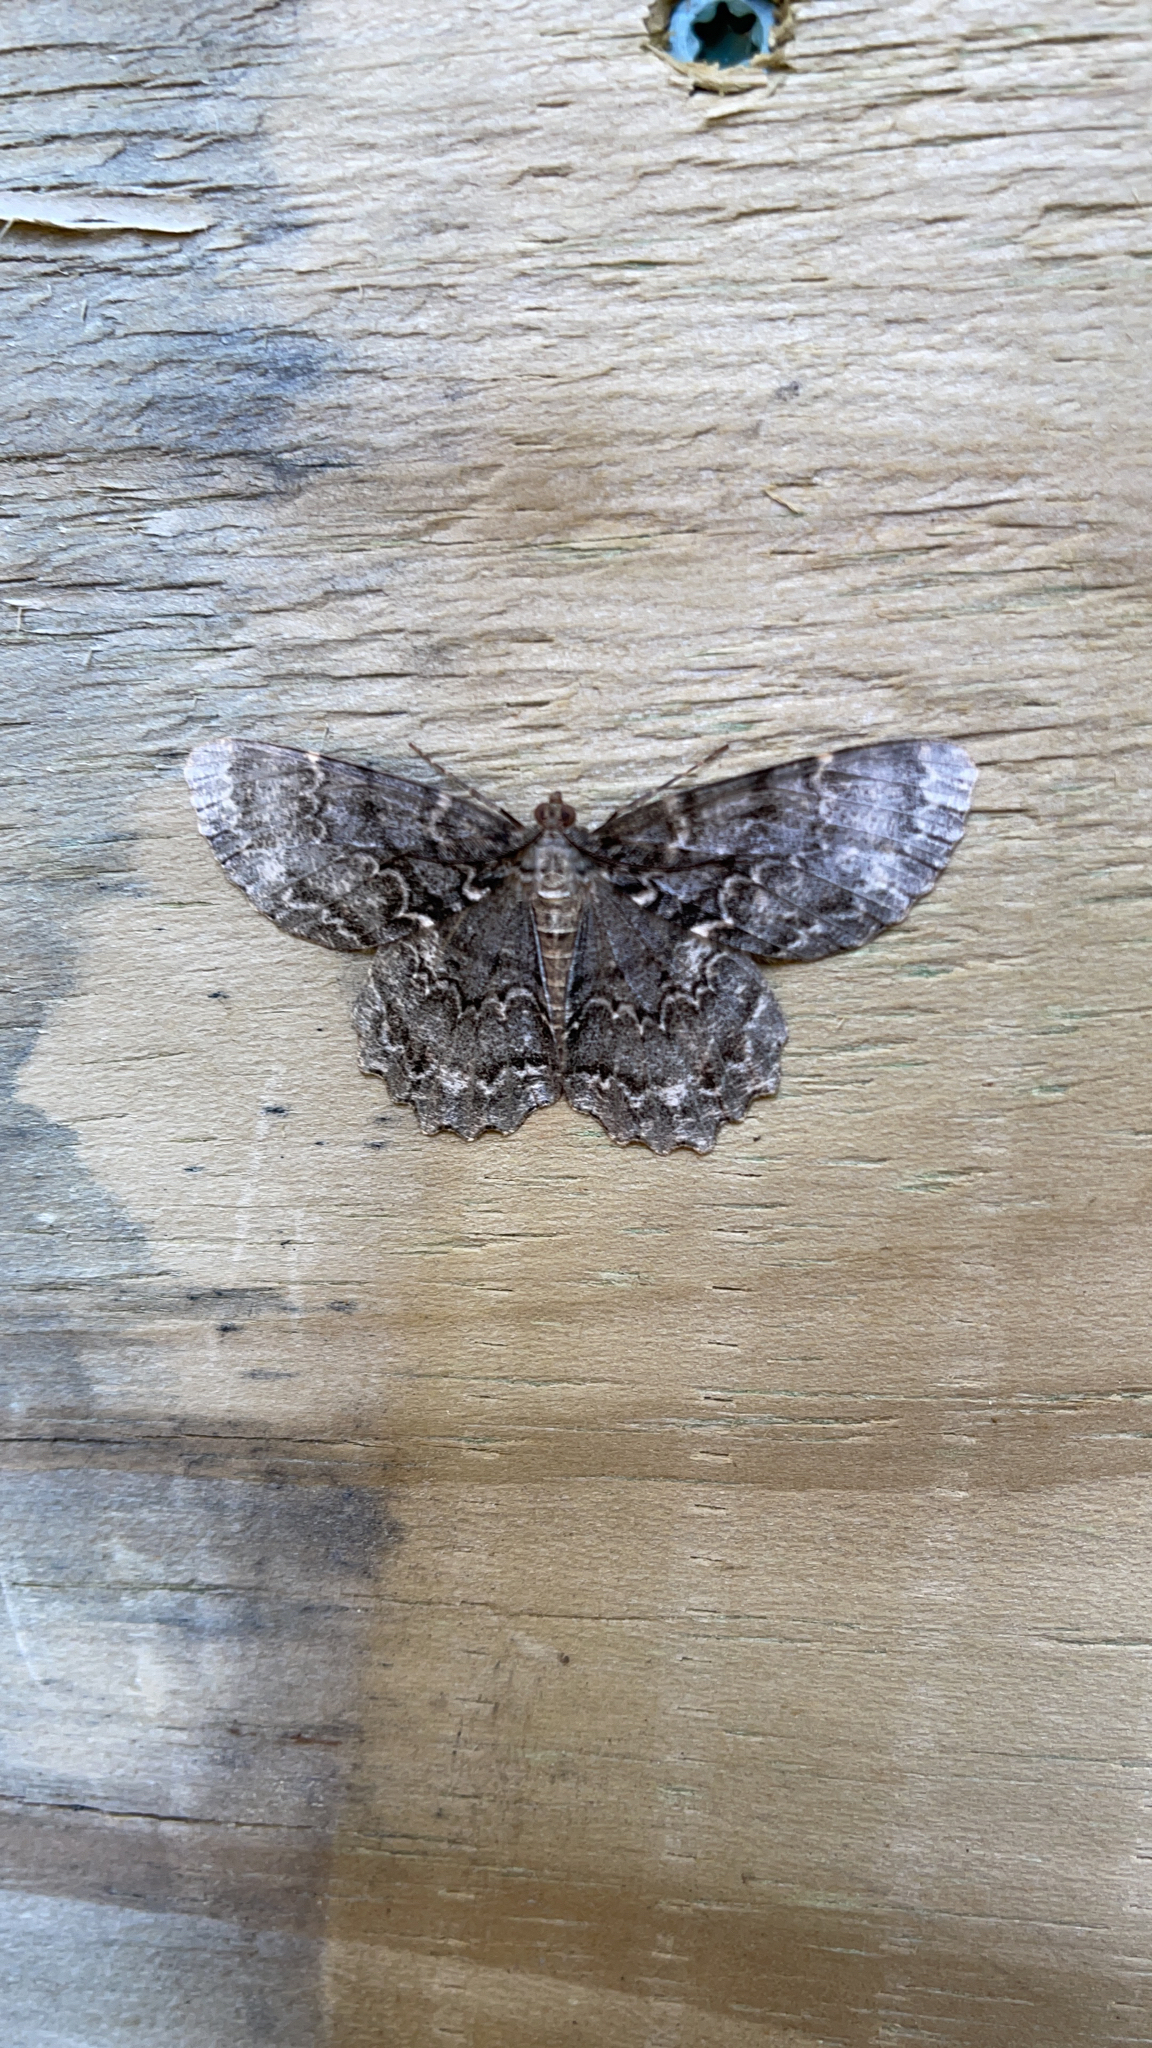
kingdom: Animalia
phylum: Arthropoda
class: Insecta
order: Lepidoptera
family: Geometridae
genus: Epimecis
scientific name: Epimecis hortaria
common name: Tulip-tree beauty
